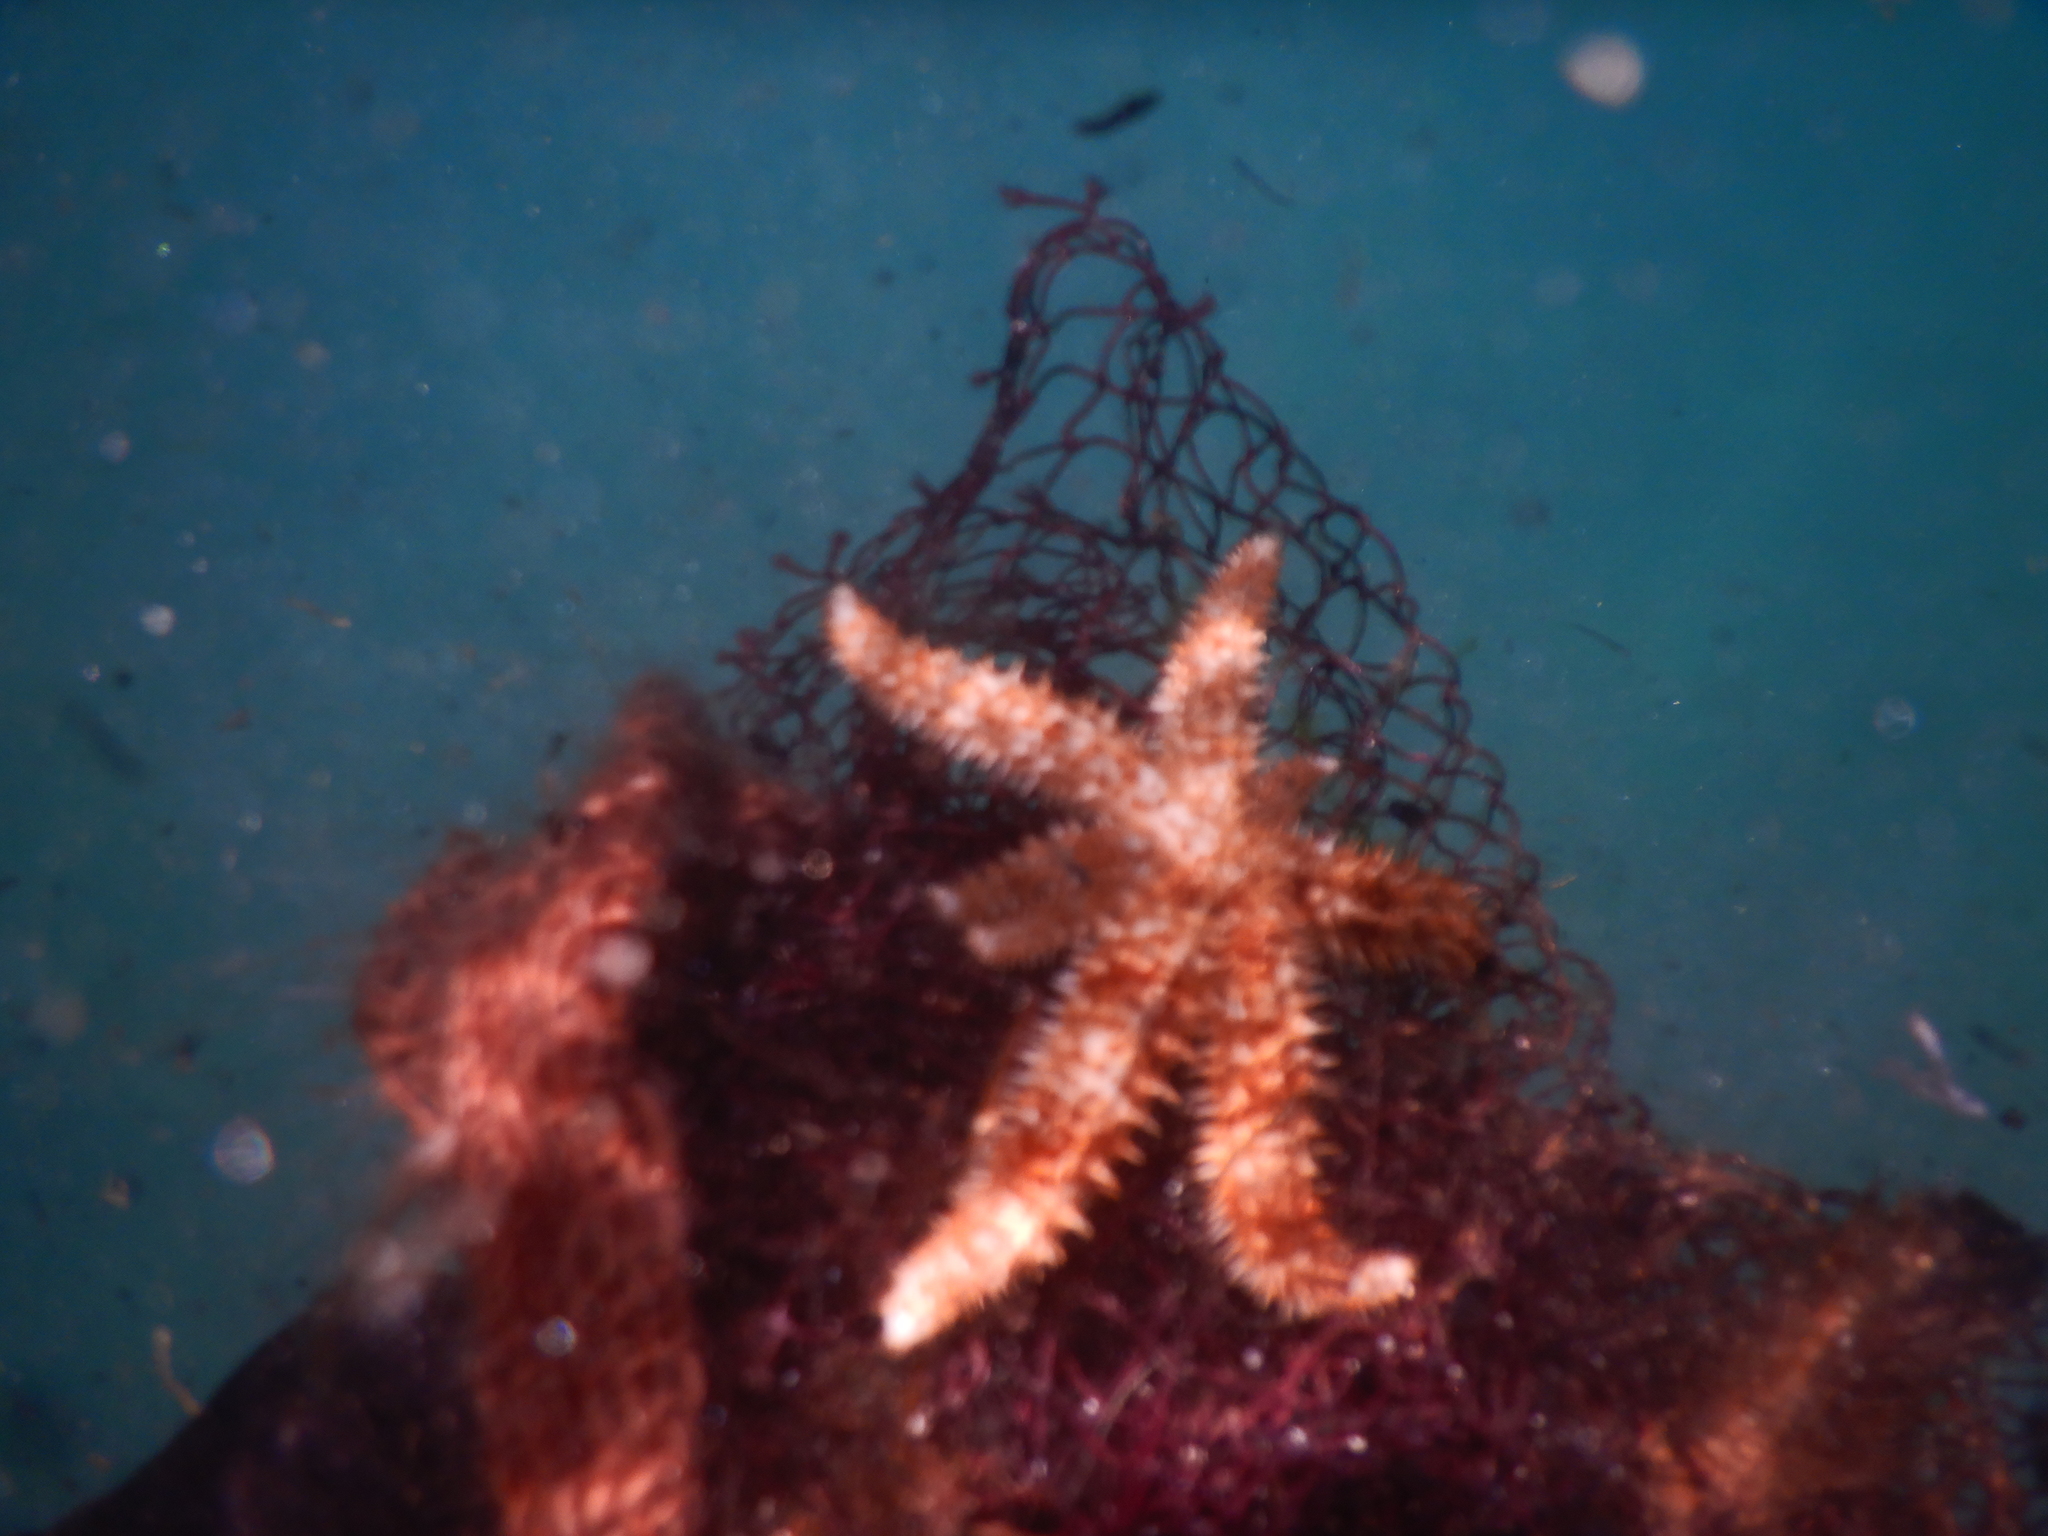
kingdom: Animalia
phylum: Echinodermata
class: Asteroidea
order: Forcipulatida
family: Asteriidae
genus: Coscinasterias
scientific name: Coscinasterias tenuispina
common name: Blue spiny starfish
